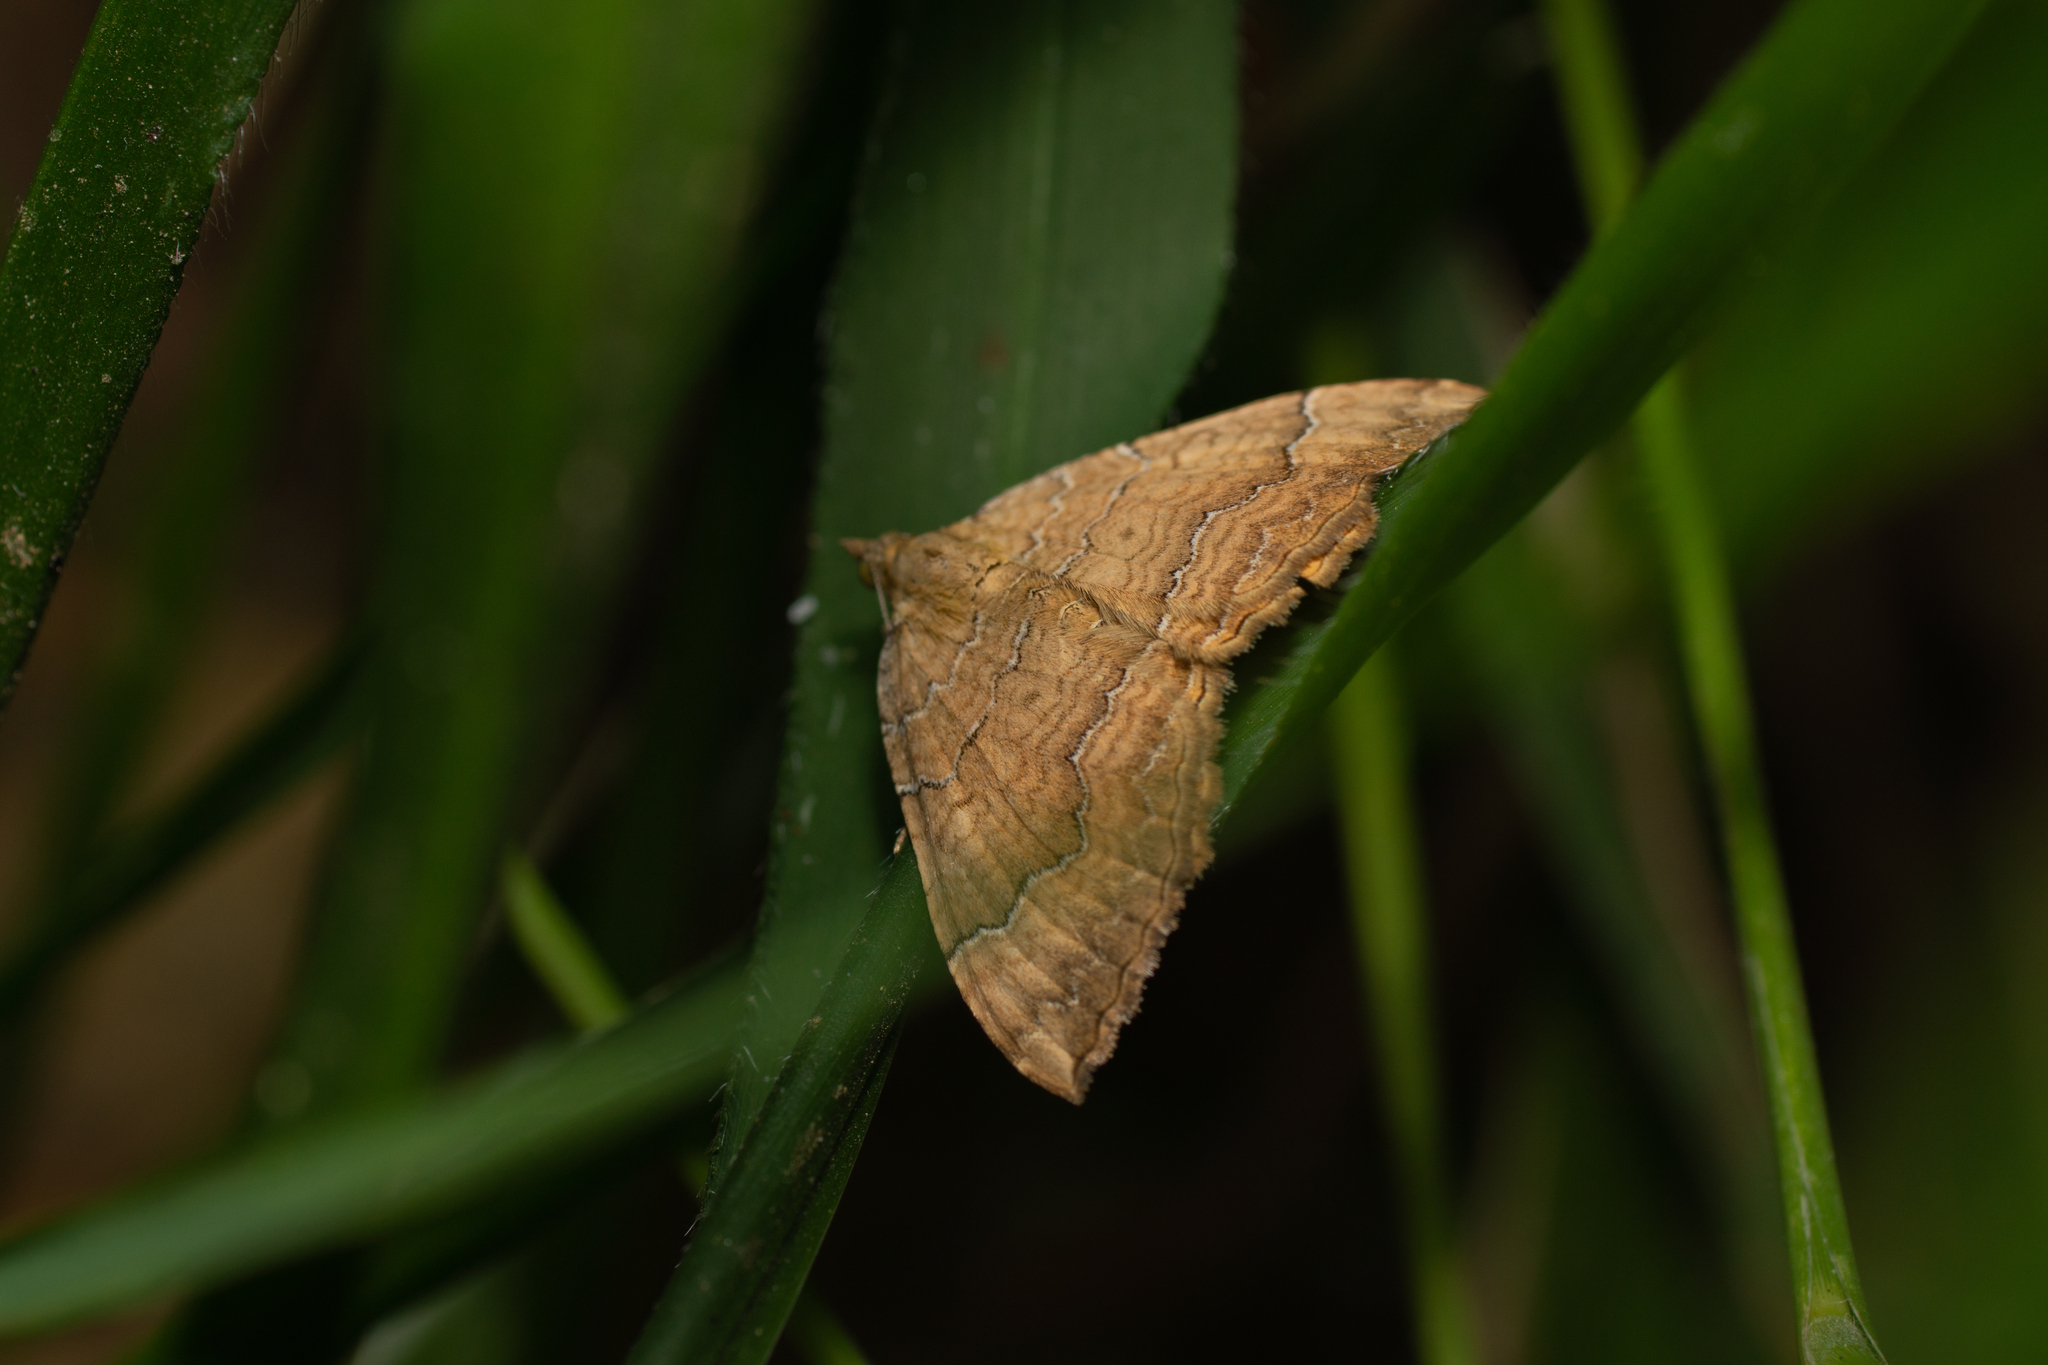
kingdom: Animalia
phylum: Arthropoda
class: Insecta
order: Lepidoptera
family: Geometridae
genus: Camptogramma
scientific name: Camptogramma bilineata
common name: Yellow shell
